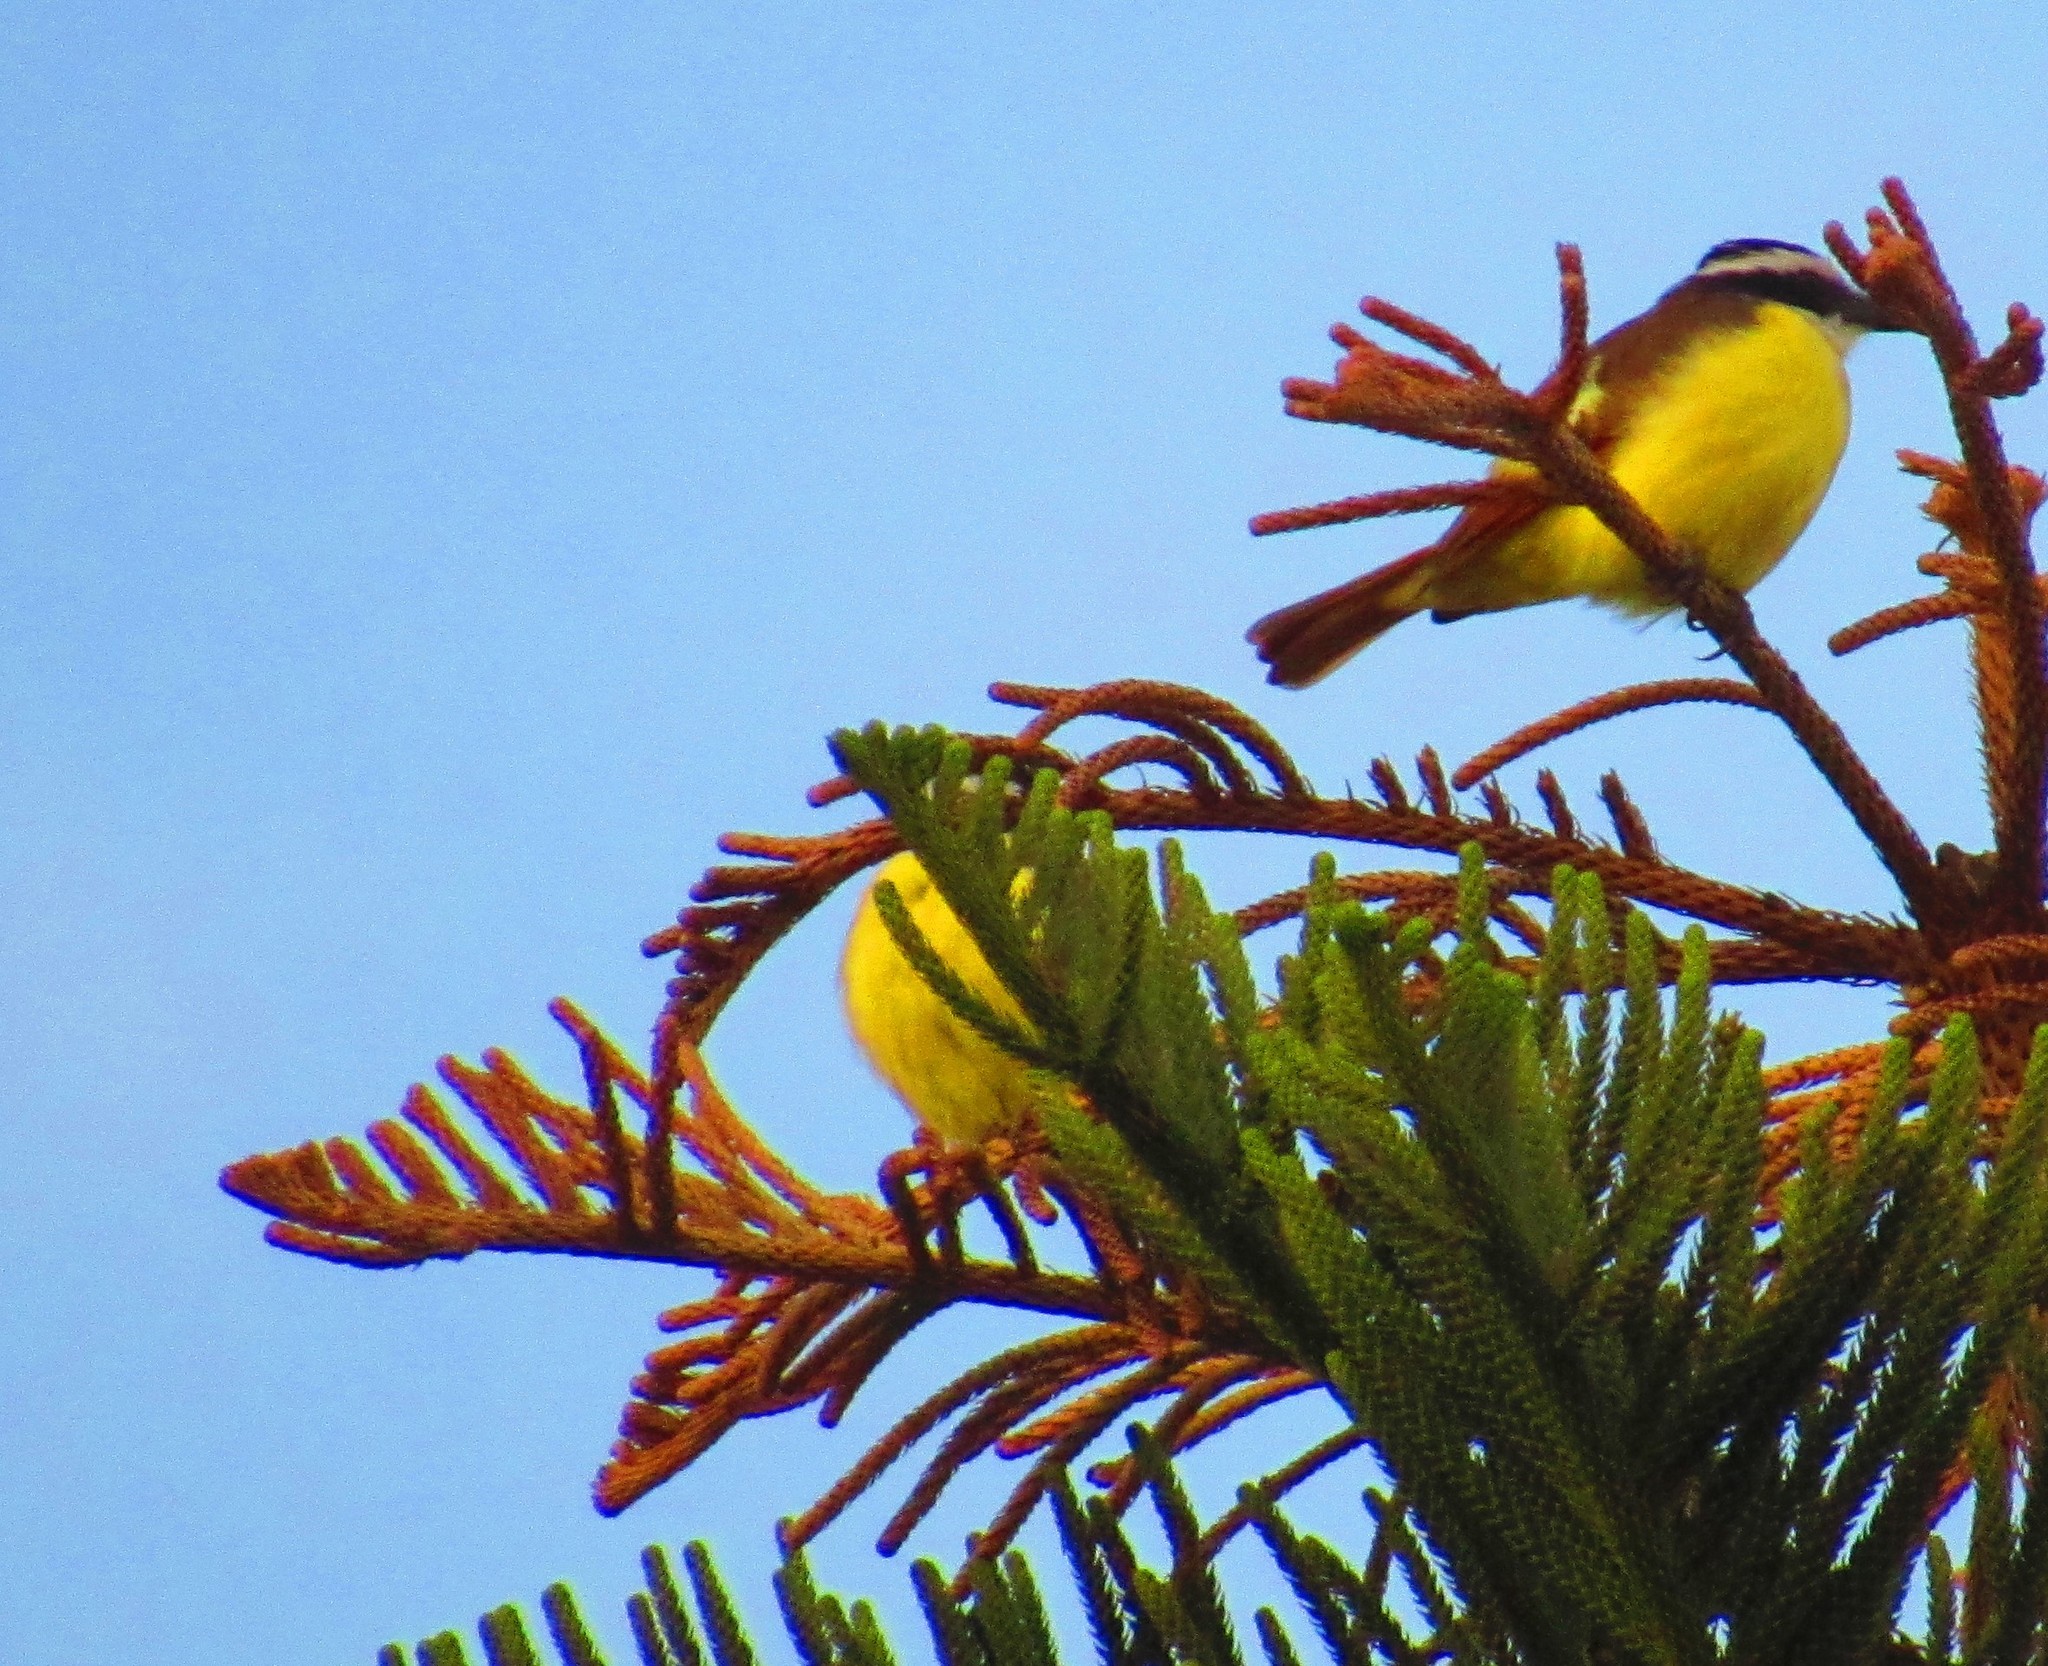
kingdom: Animalia
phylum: Chordata
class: Aves
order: Passeriformes
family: Tyrannidae
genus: Pitangus
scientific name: Pitangus sulphuratus
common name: Great kiskadee
